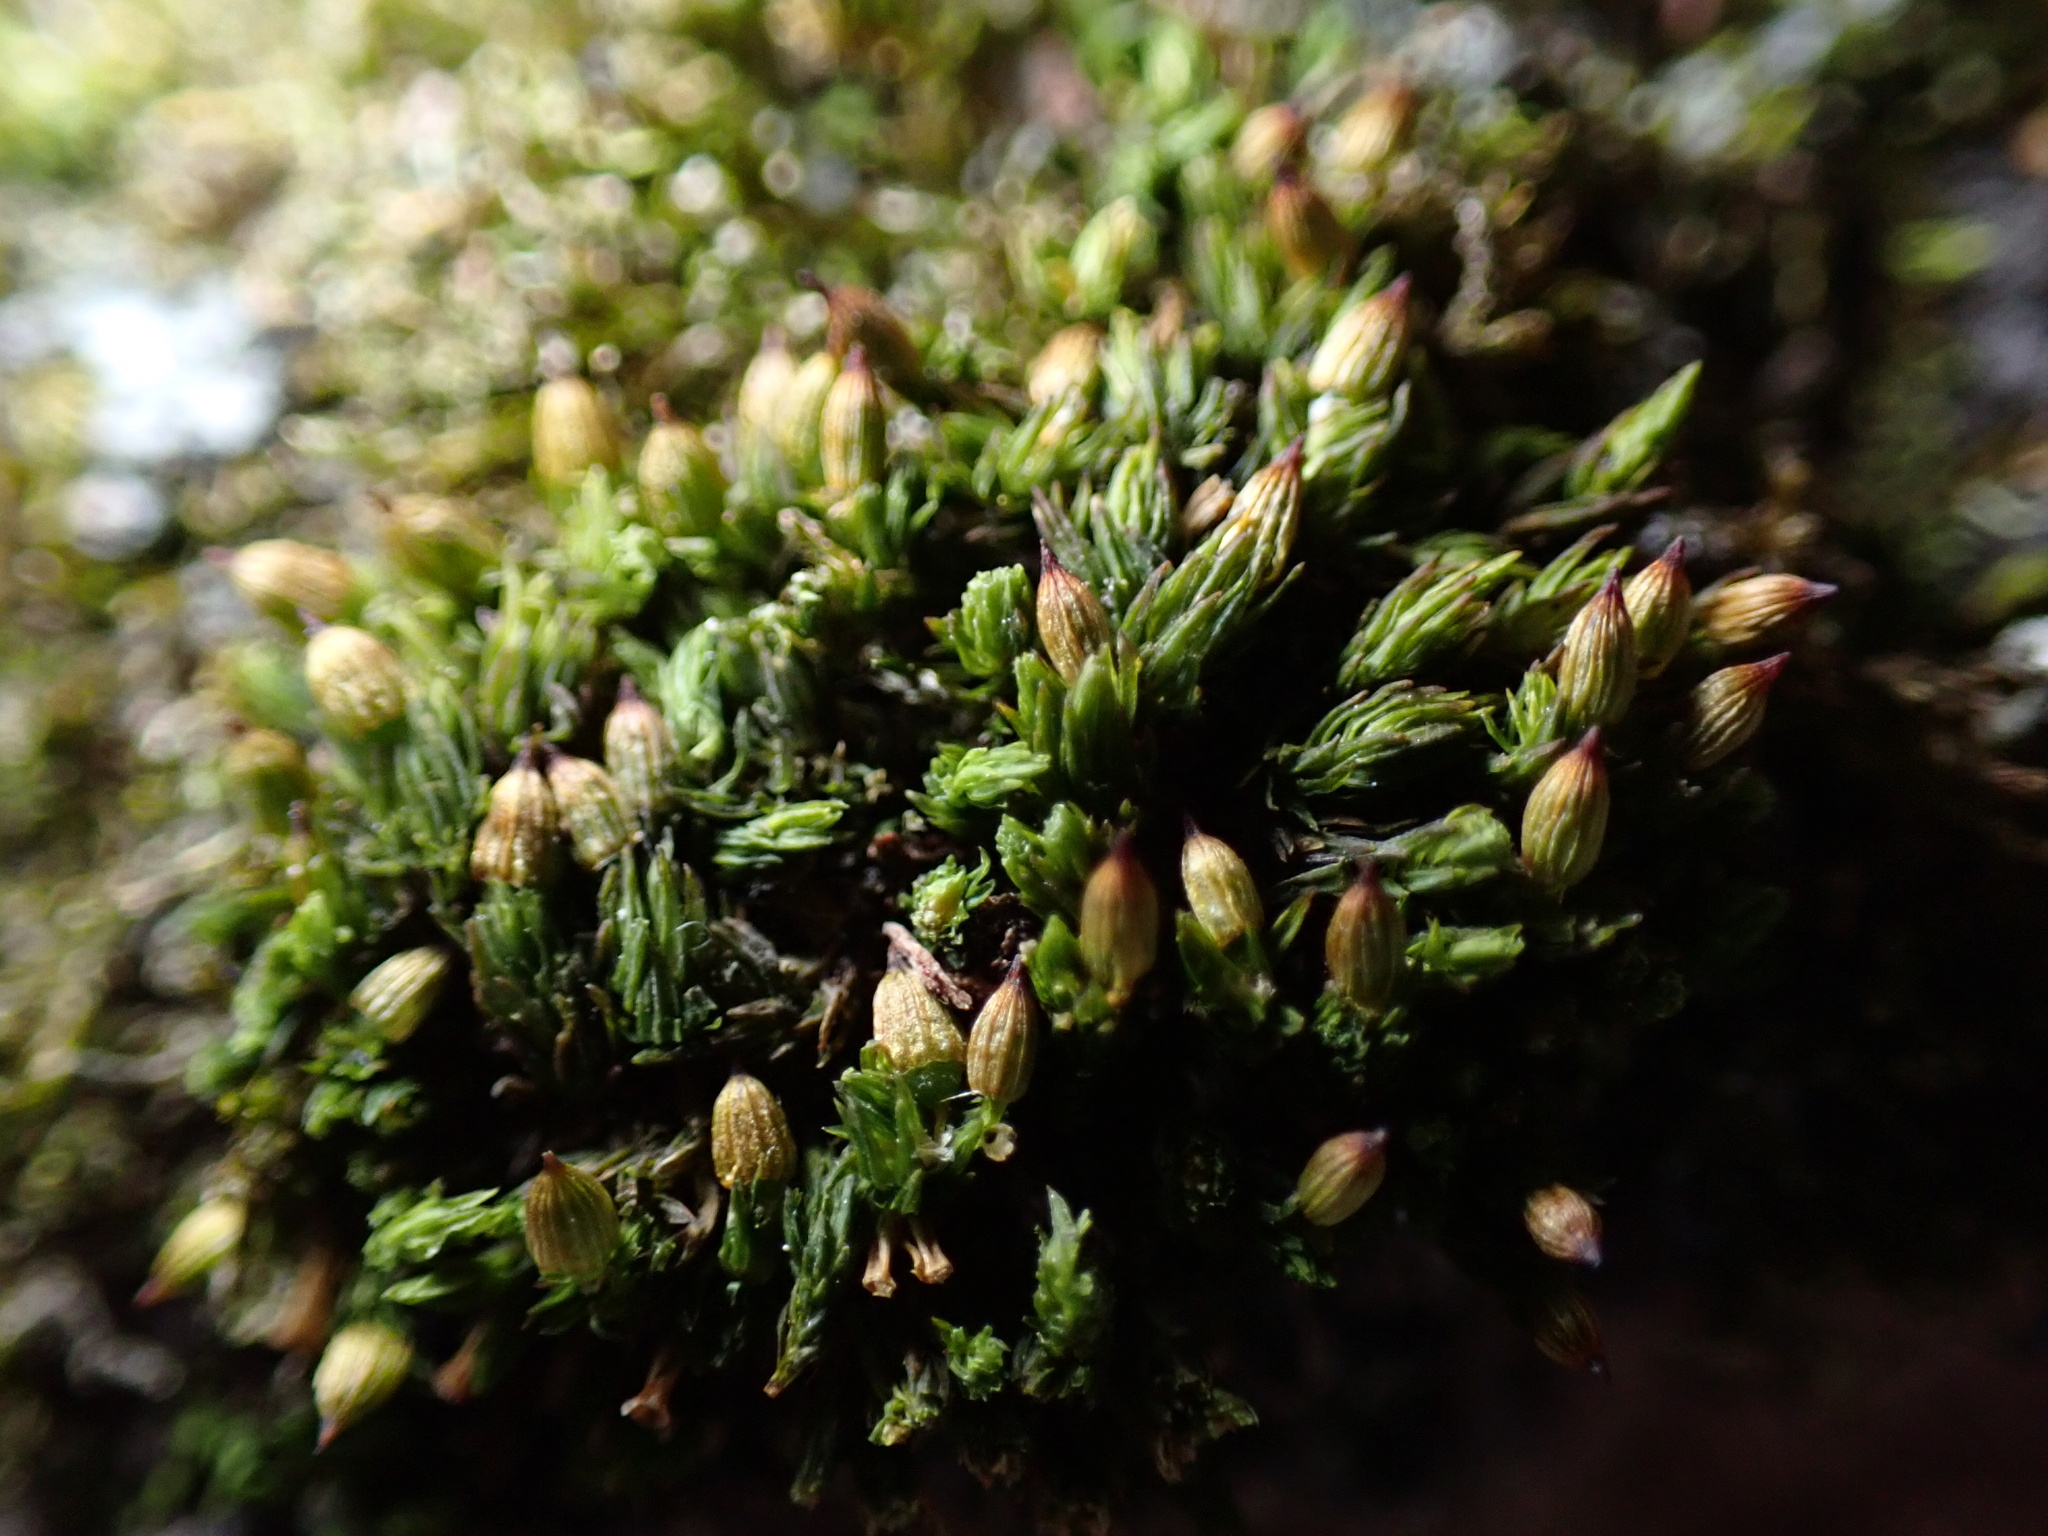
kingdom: Plantae
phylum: Bryophyta
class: Bryopsida
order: Orthotrichales
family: Orthotrichaceae
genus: Orthotrichum
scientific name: Orthotrichum anomalum
